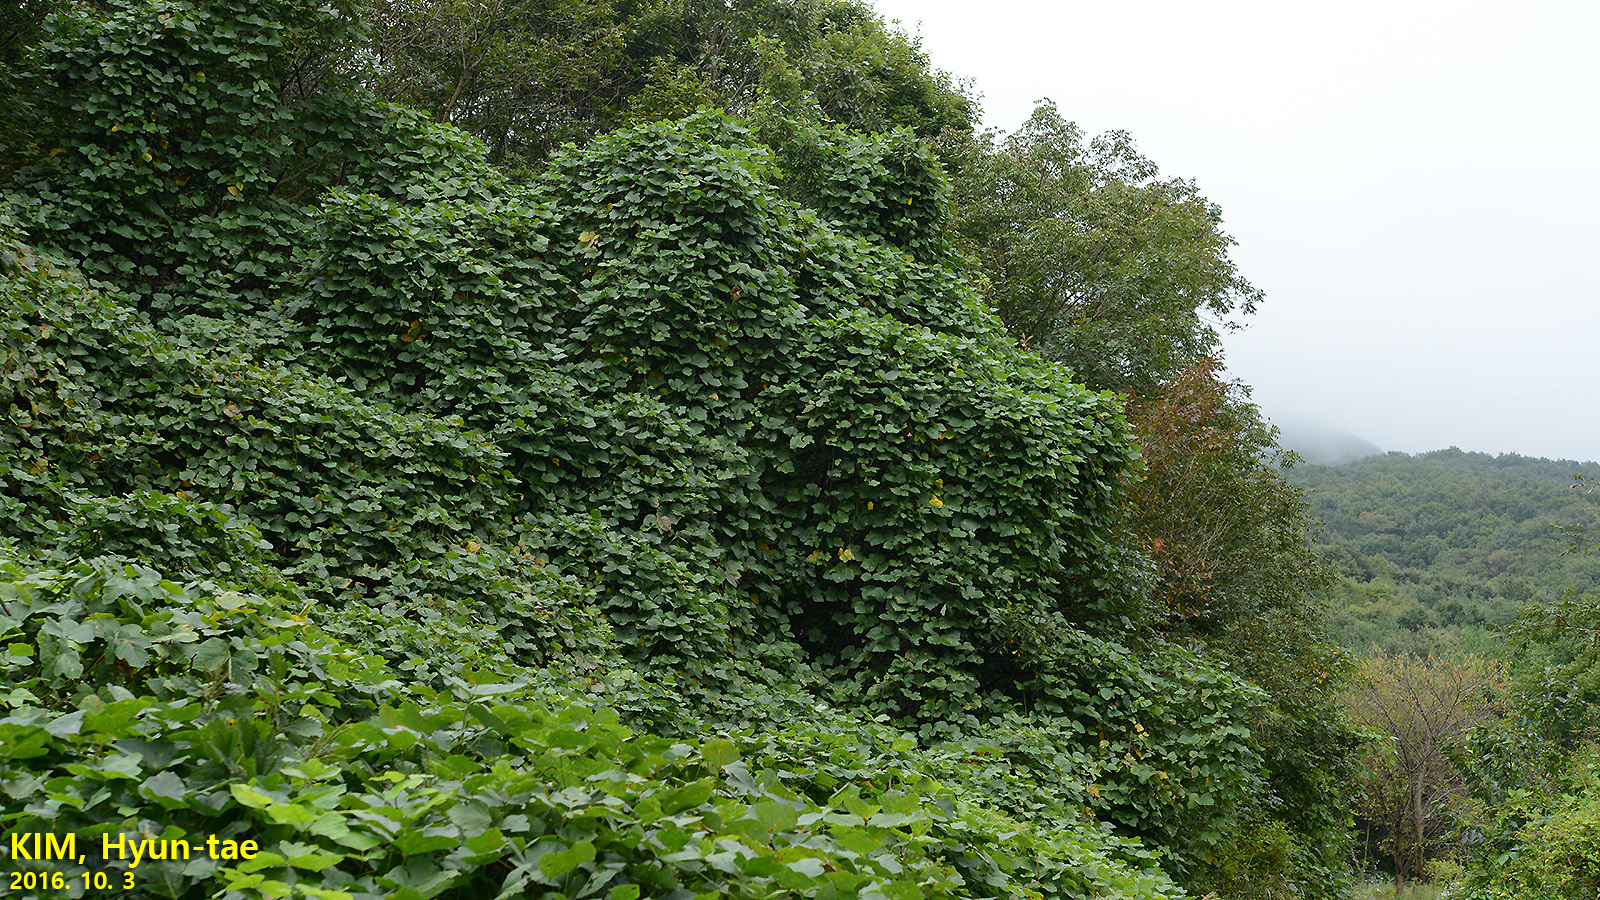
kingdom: Plantae
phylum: Tracheophyta
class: Magnoliopsida
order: Fabales
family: Fabaceae
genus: Pueraria
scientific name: Pueraria montana
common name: Kudzu
